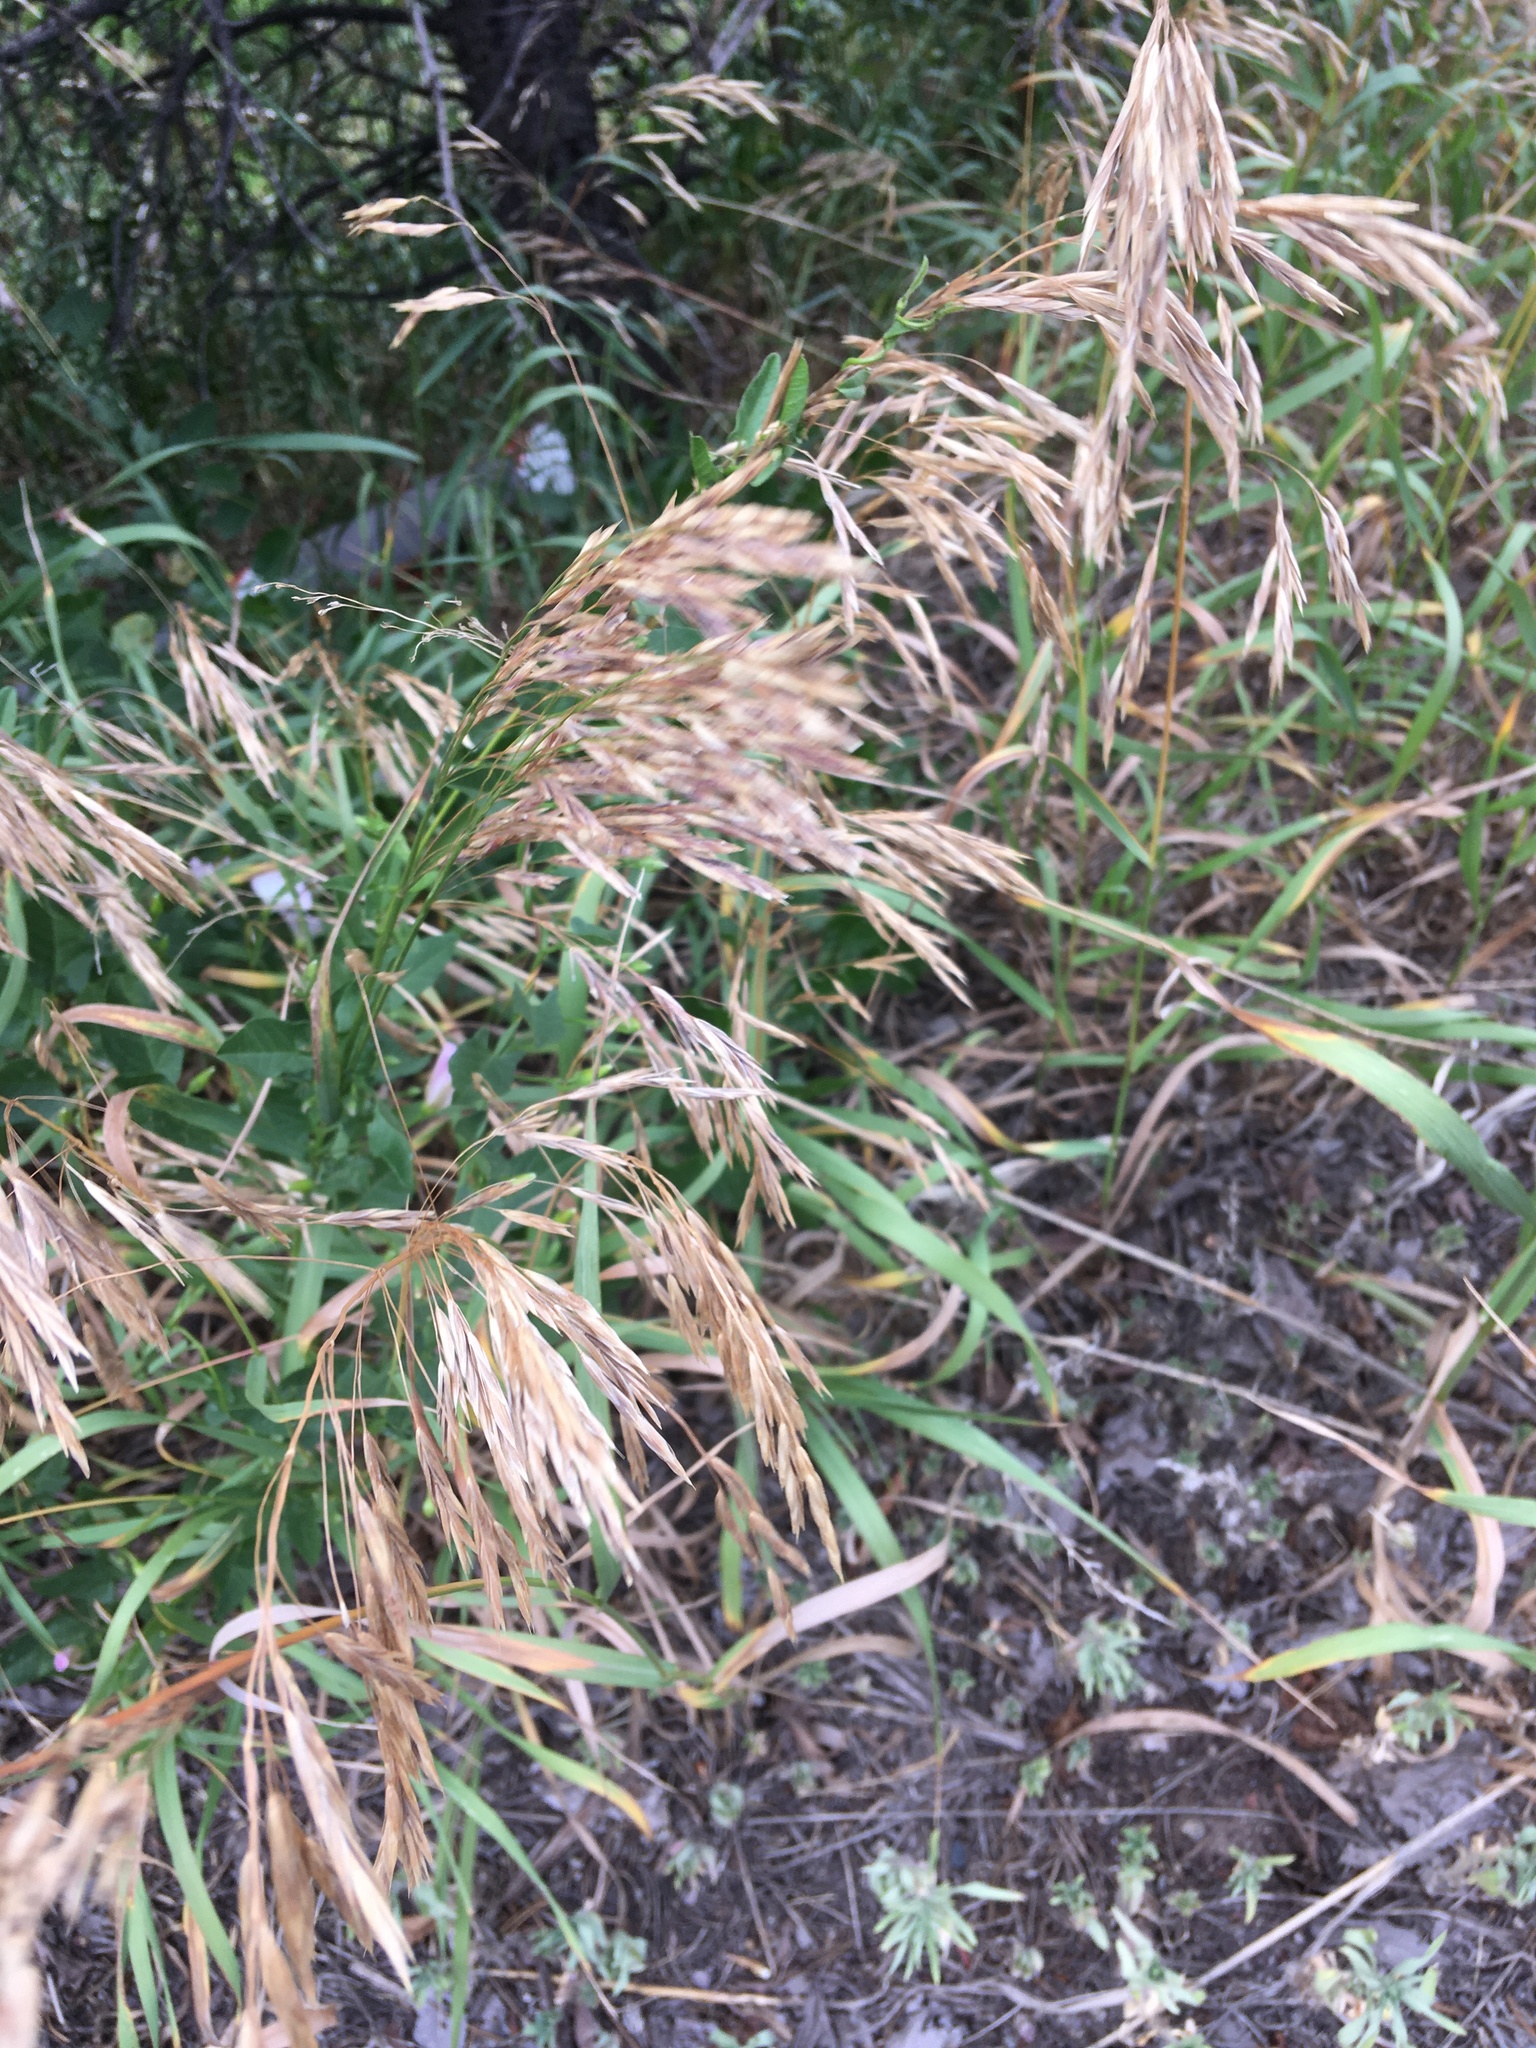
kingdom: Plantae
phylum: Tracheophyta
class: Liliopsida
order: Poales
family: Poaceae
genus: Bromus
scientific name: Bromus inermis
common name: Smooth brome
